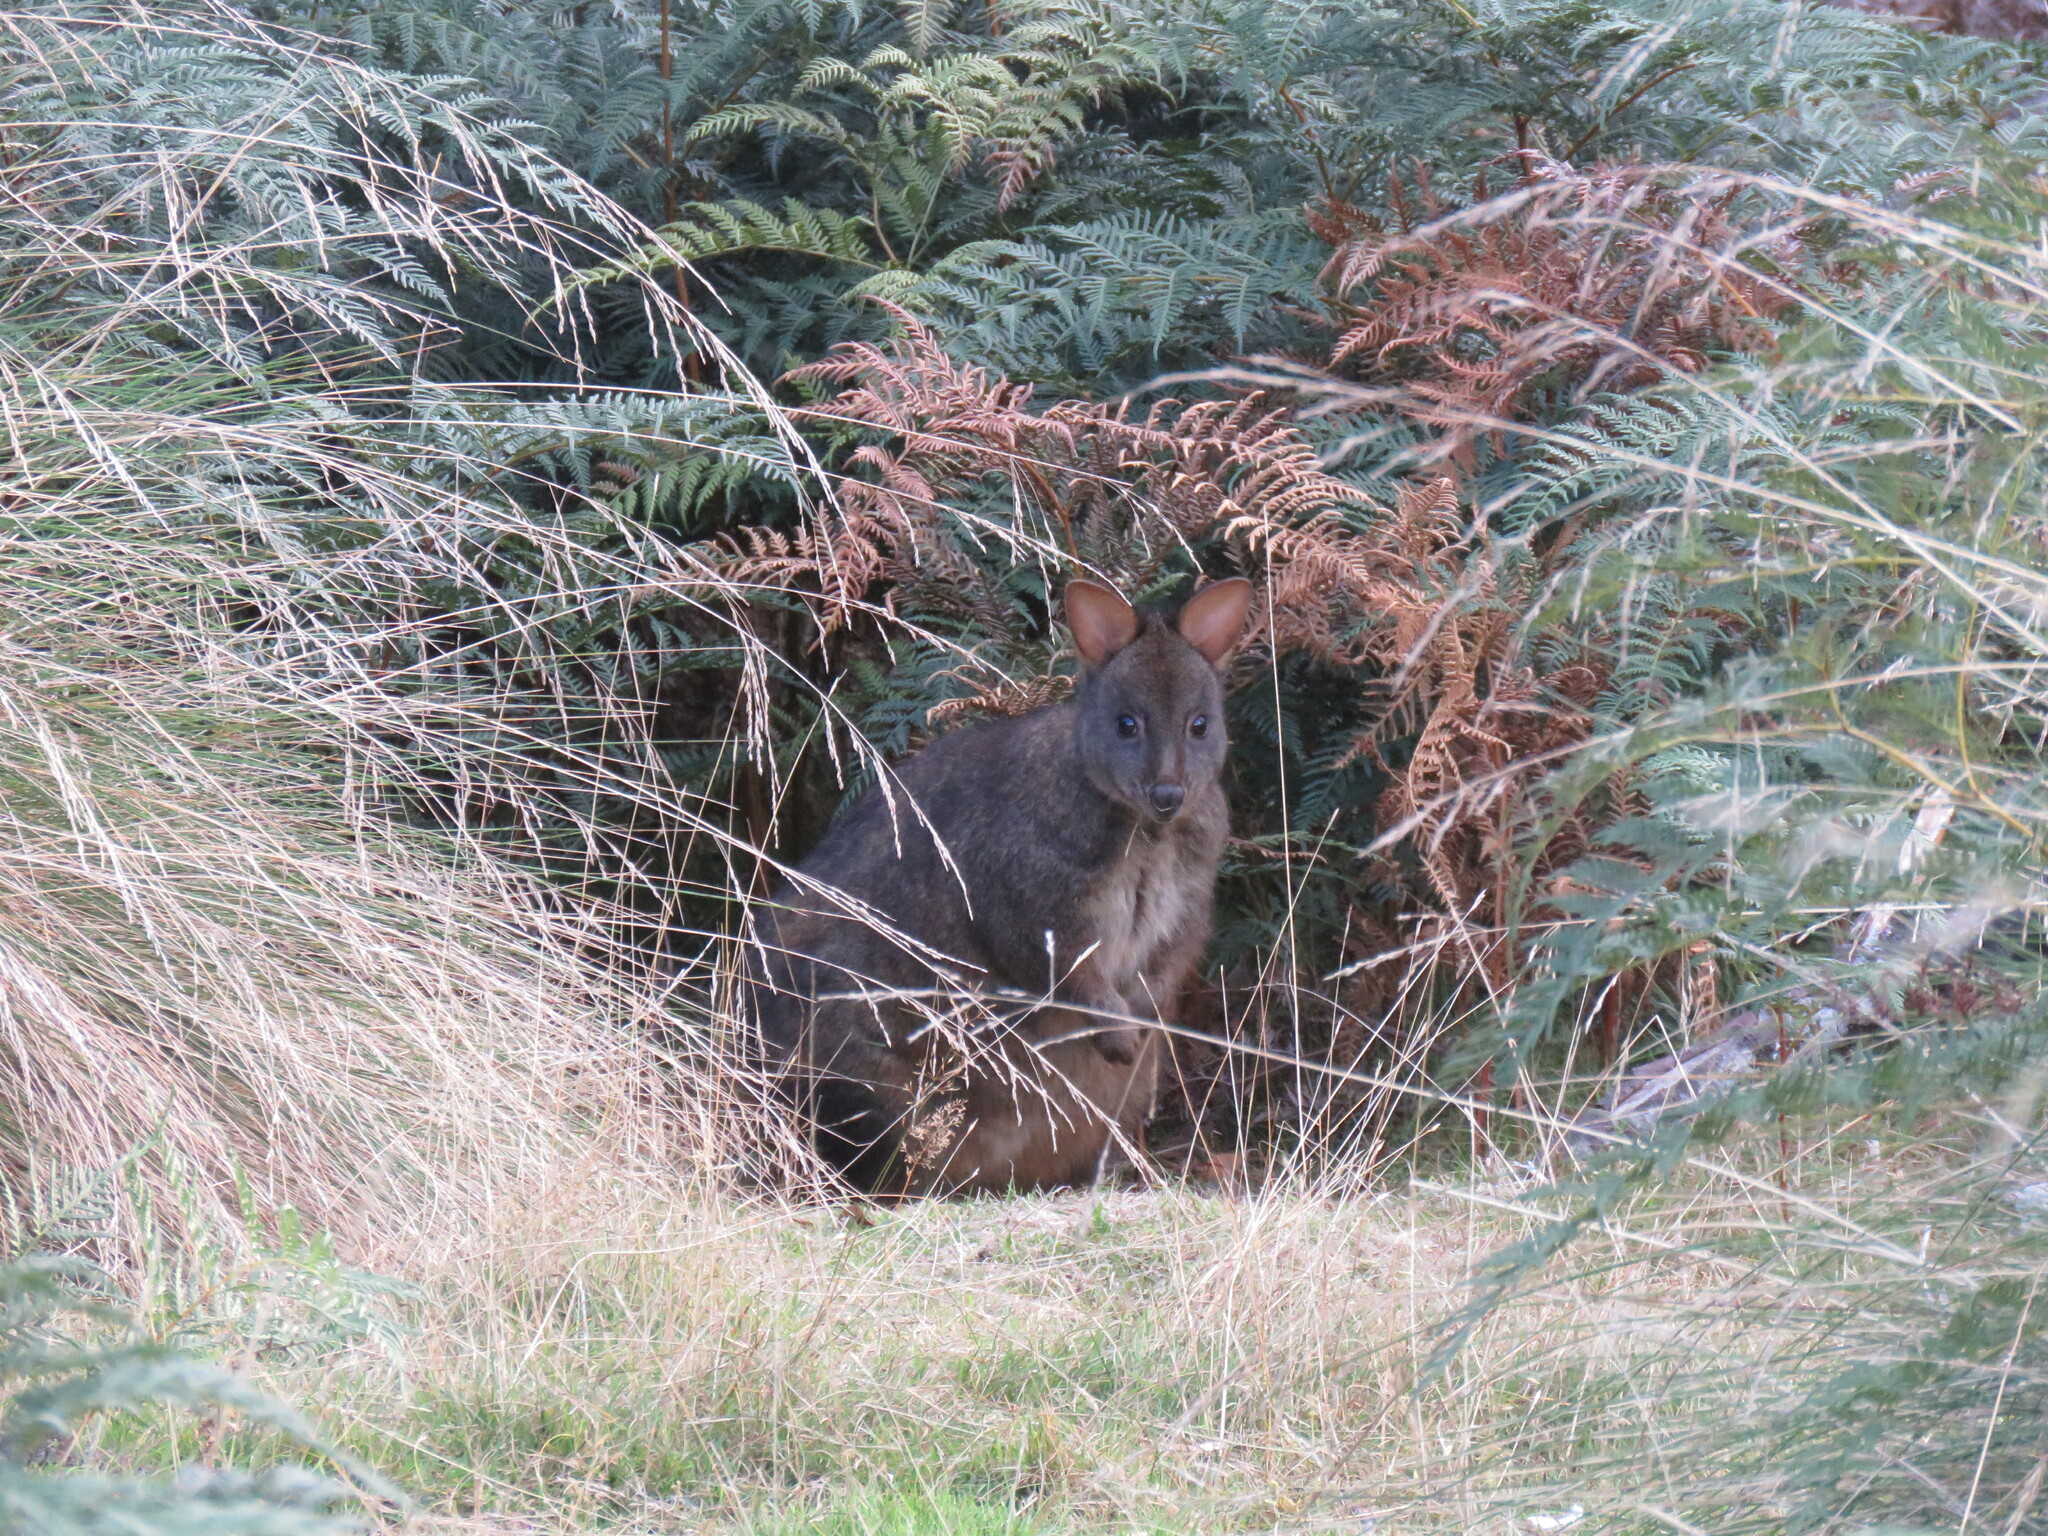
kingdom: Animalia
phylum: Chordata
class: Mammalia
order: Diprotodontia
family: Macropodidae
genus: Thylogale
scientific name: Thylogale billardierii
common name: Tasmanian pademelon
